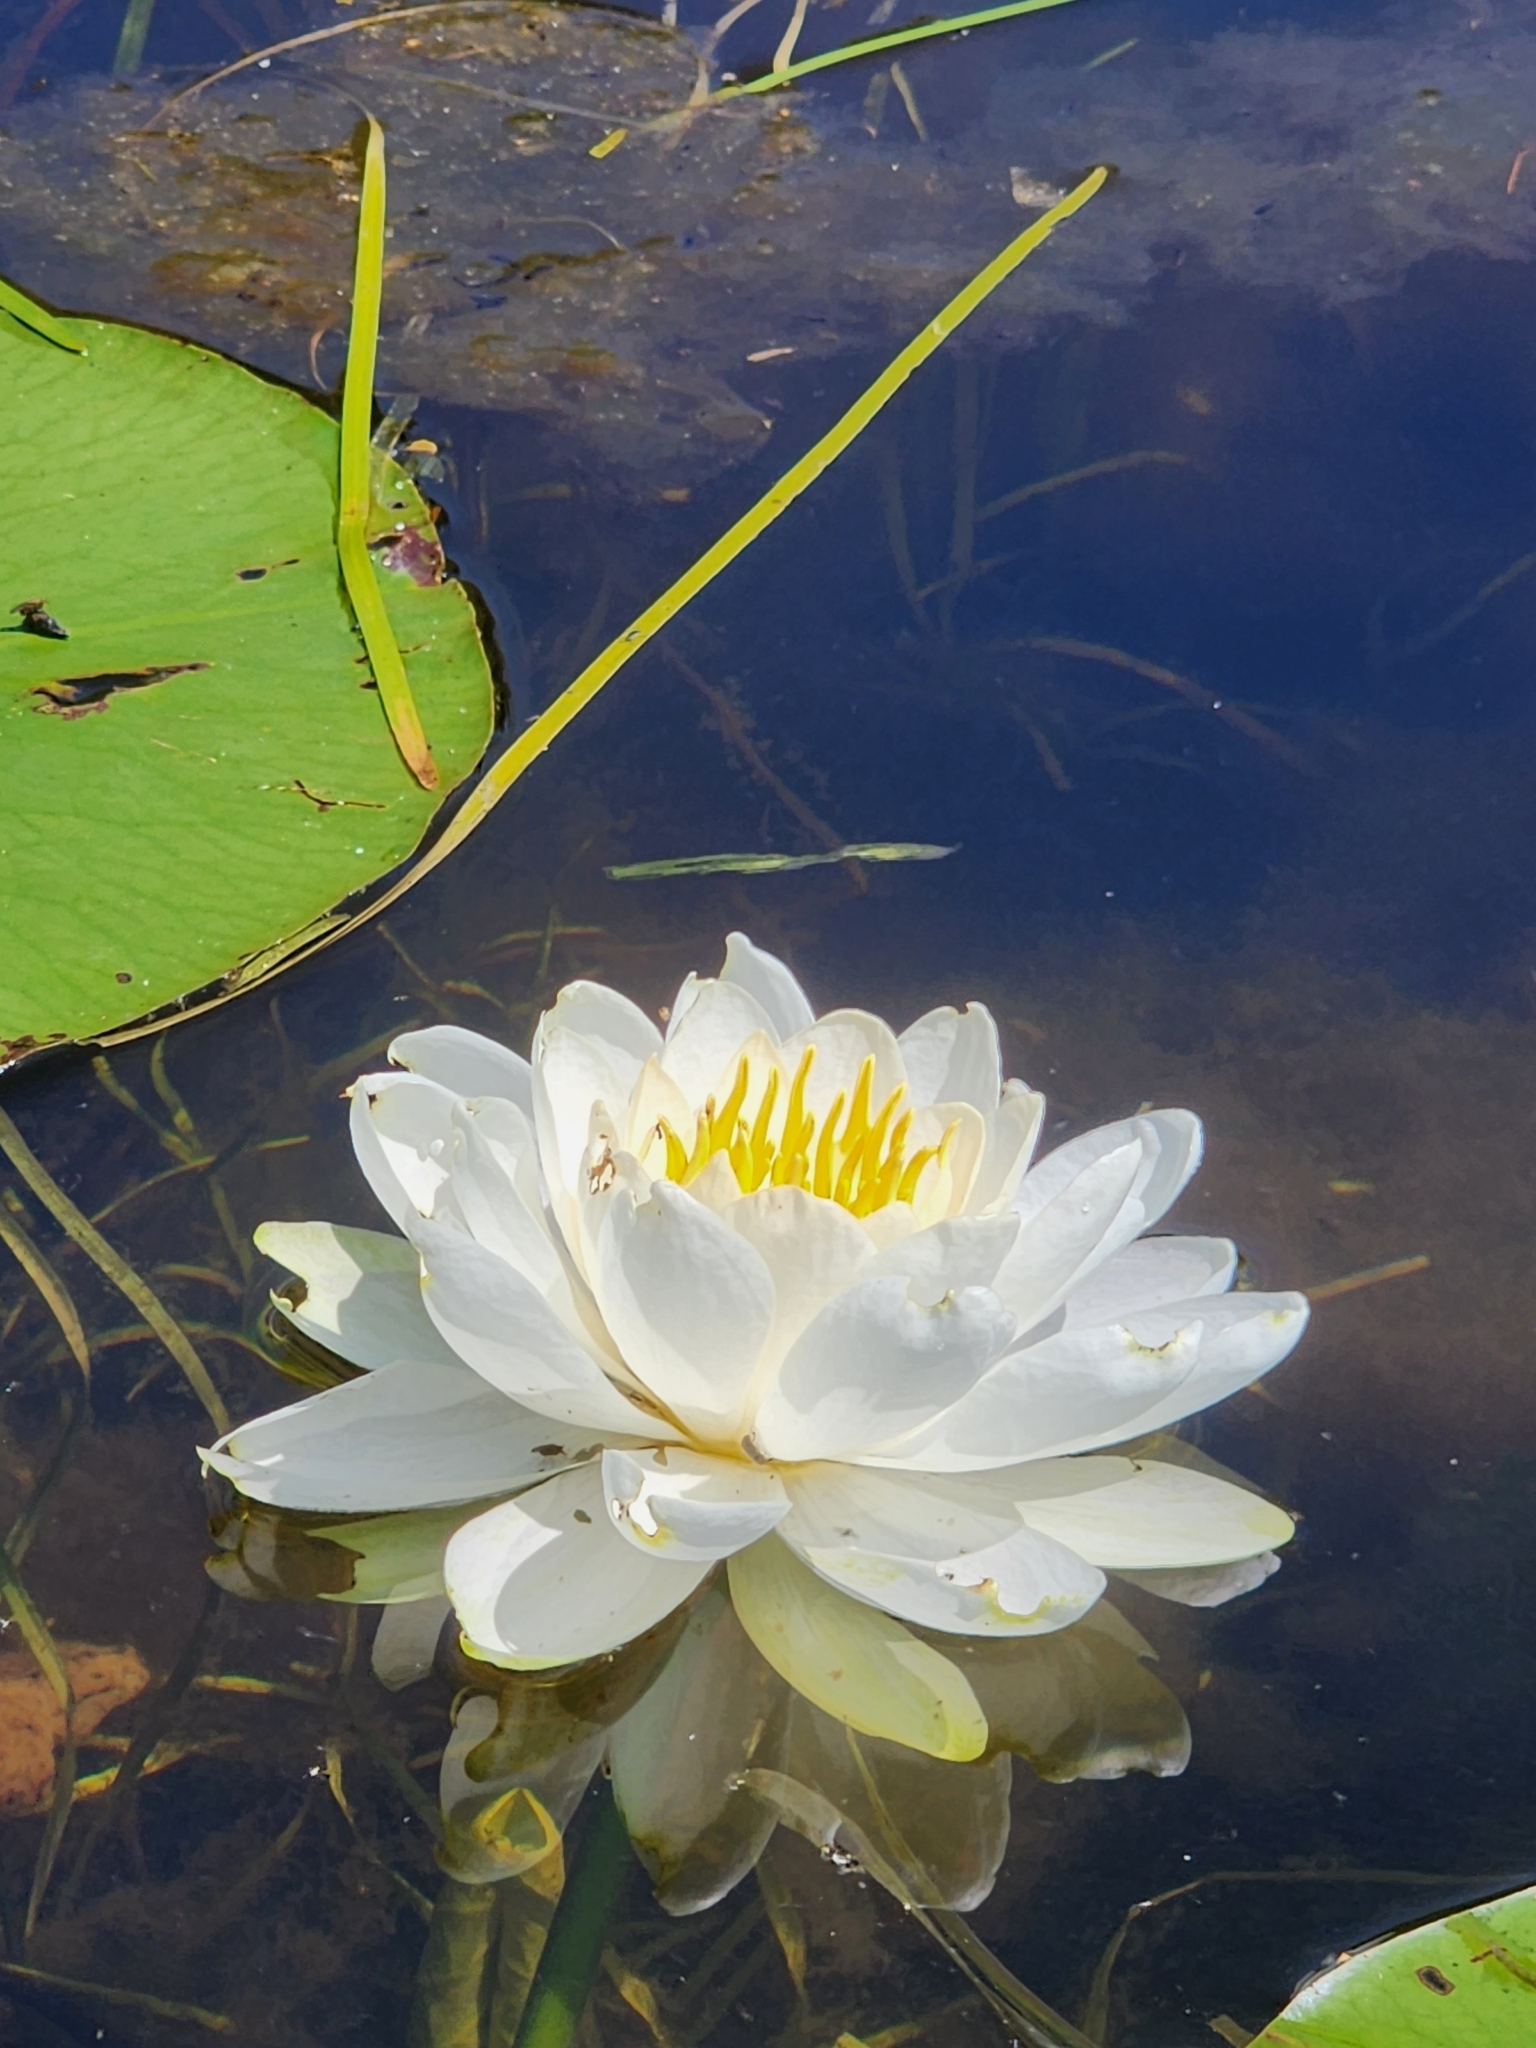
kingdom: Plantae
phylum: Tracheophyta
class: Magnoliopsida
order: Nymphaeales
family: Nymphaeaceae
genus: Nymphaea
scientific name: Nymphaea odorata
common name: Fragrant water-lily
